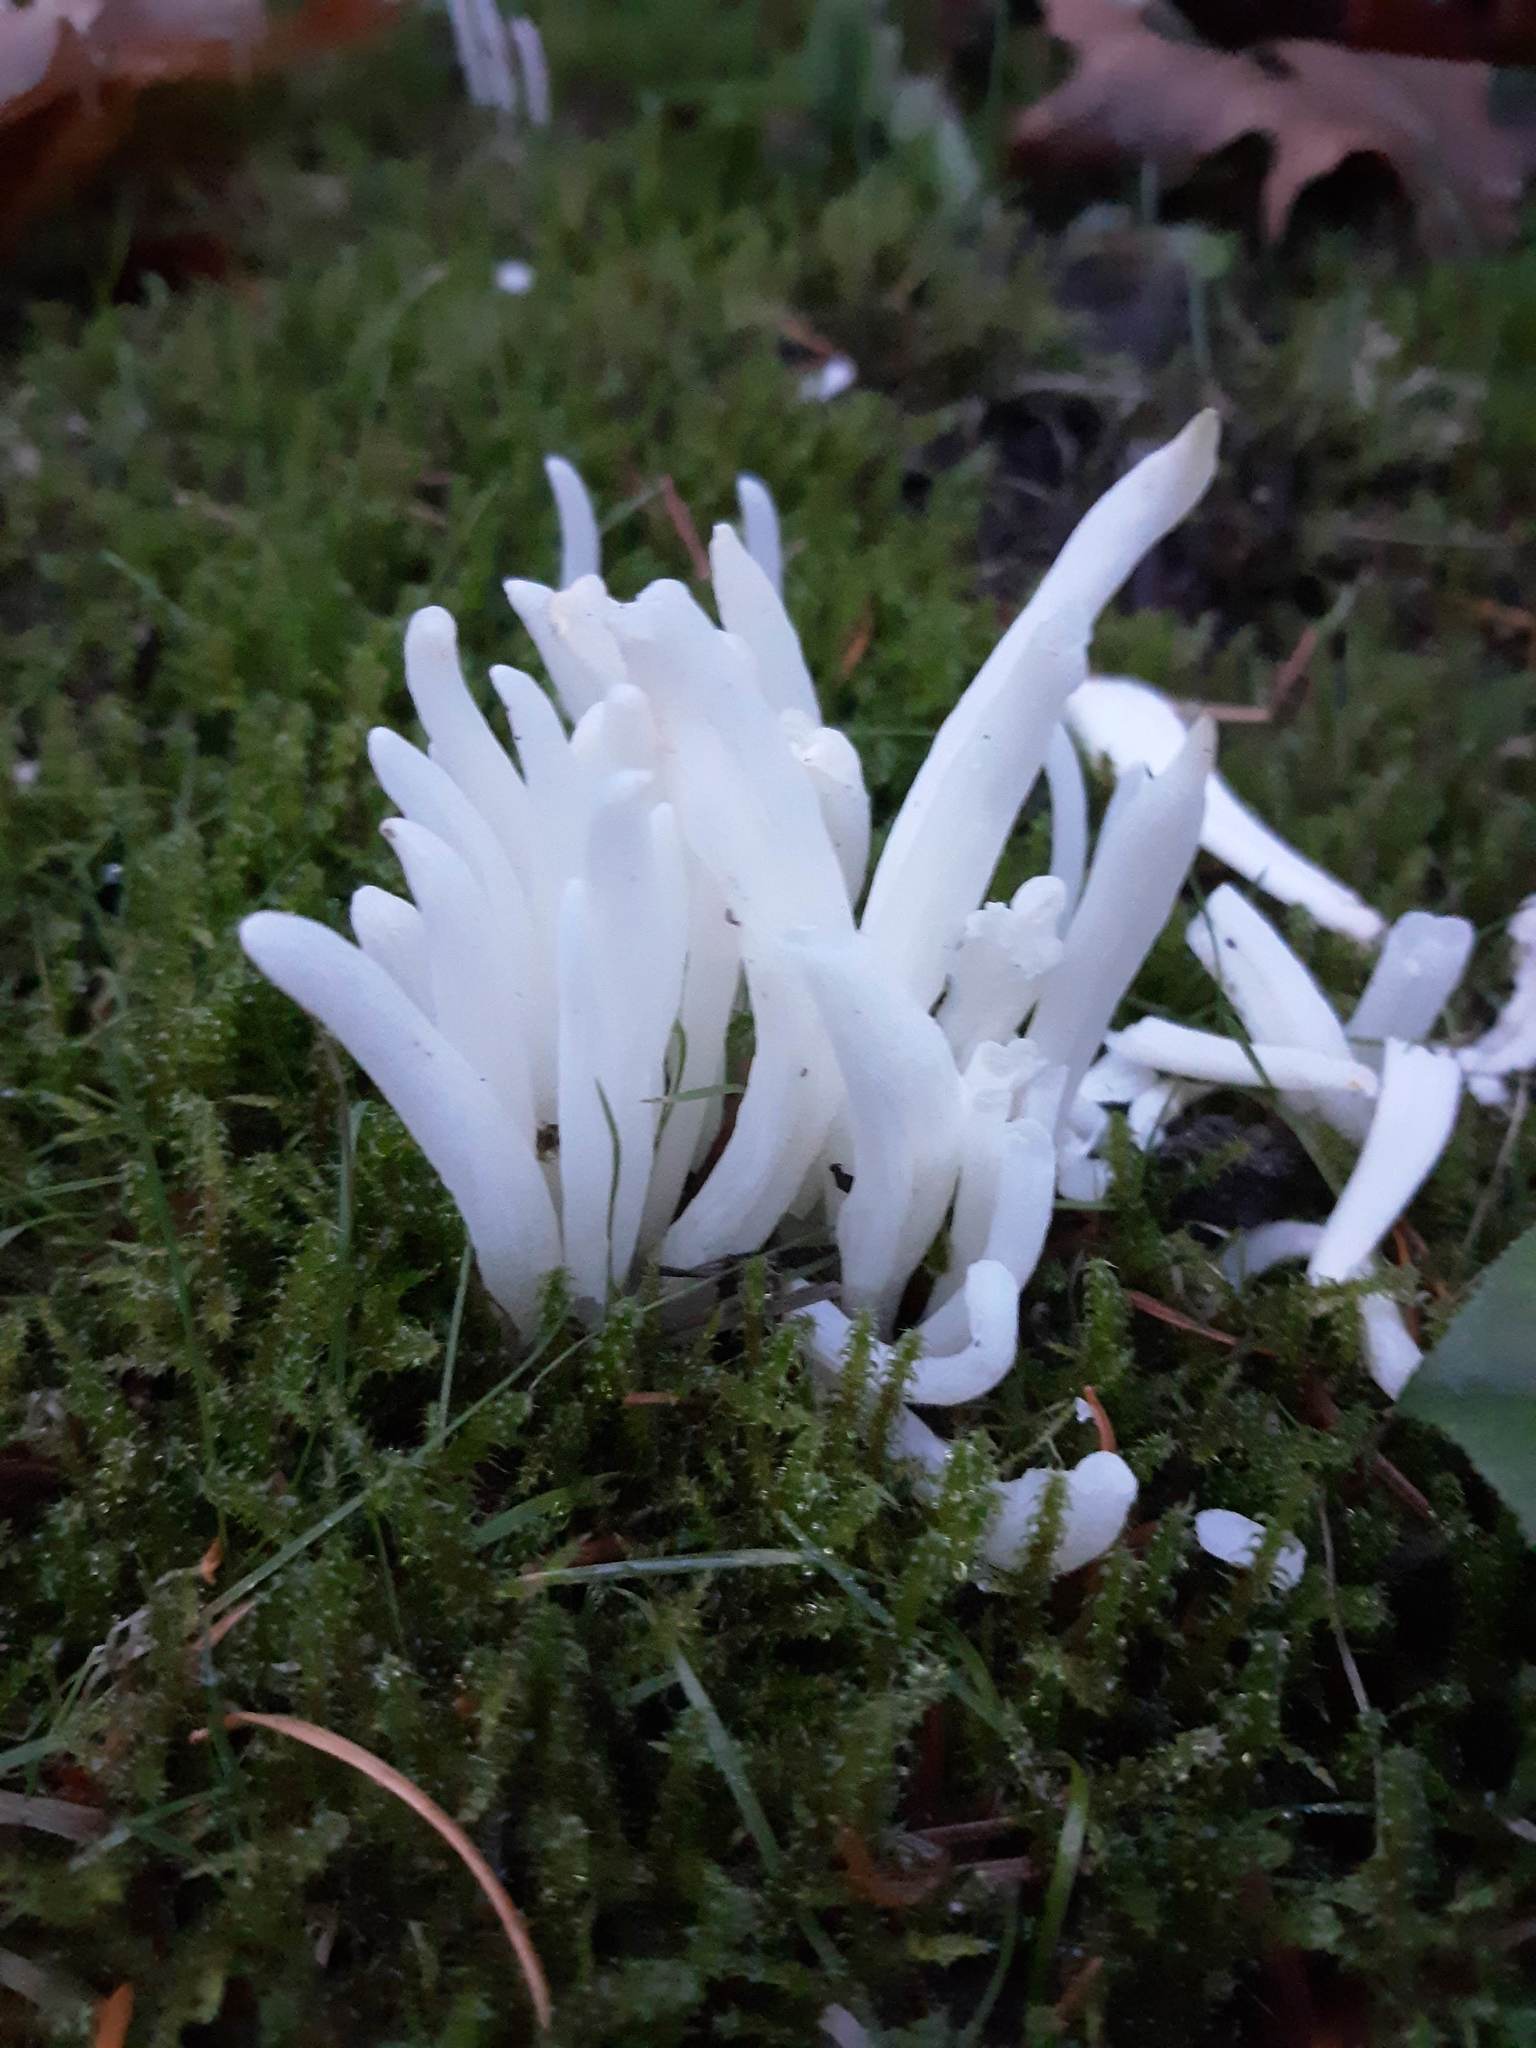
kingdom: Fungi
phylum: Basidiomycota
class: Agaricomycetes
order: Agaricales
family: Clavariaceae
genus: Clavaria
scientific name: Clavaria fragilis
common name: White spindles
